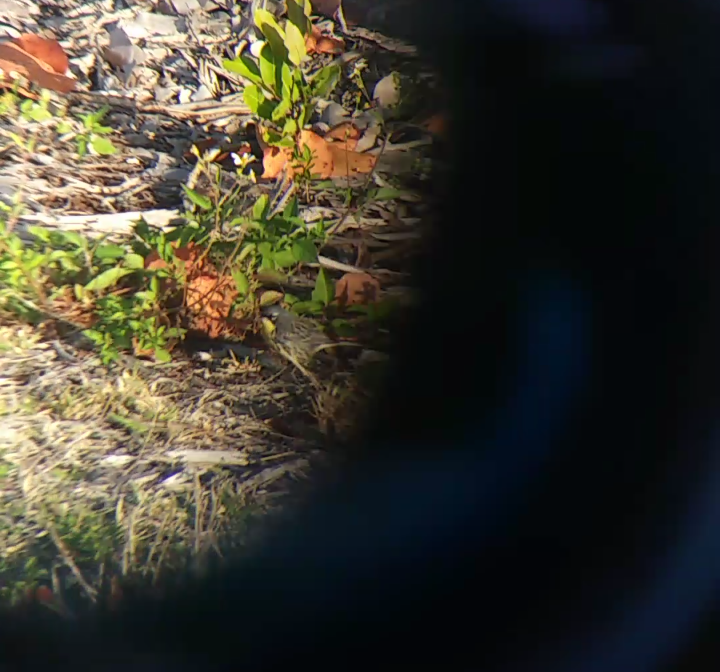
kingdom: Animalia
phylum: Chordata
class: Aves
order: Passeriformes
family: Parulidae
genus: Setophaga
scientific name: Setophaga kirtlandii
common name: Kirtland's warbler
